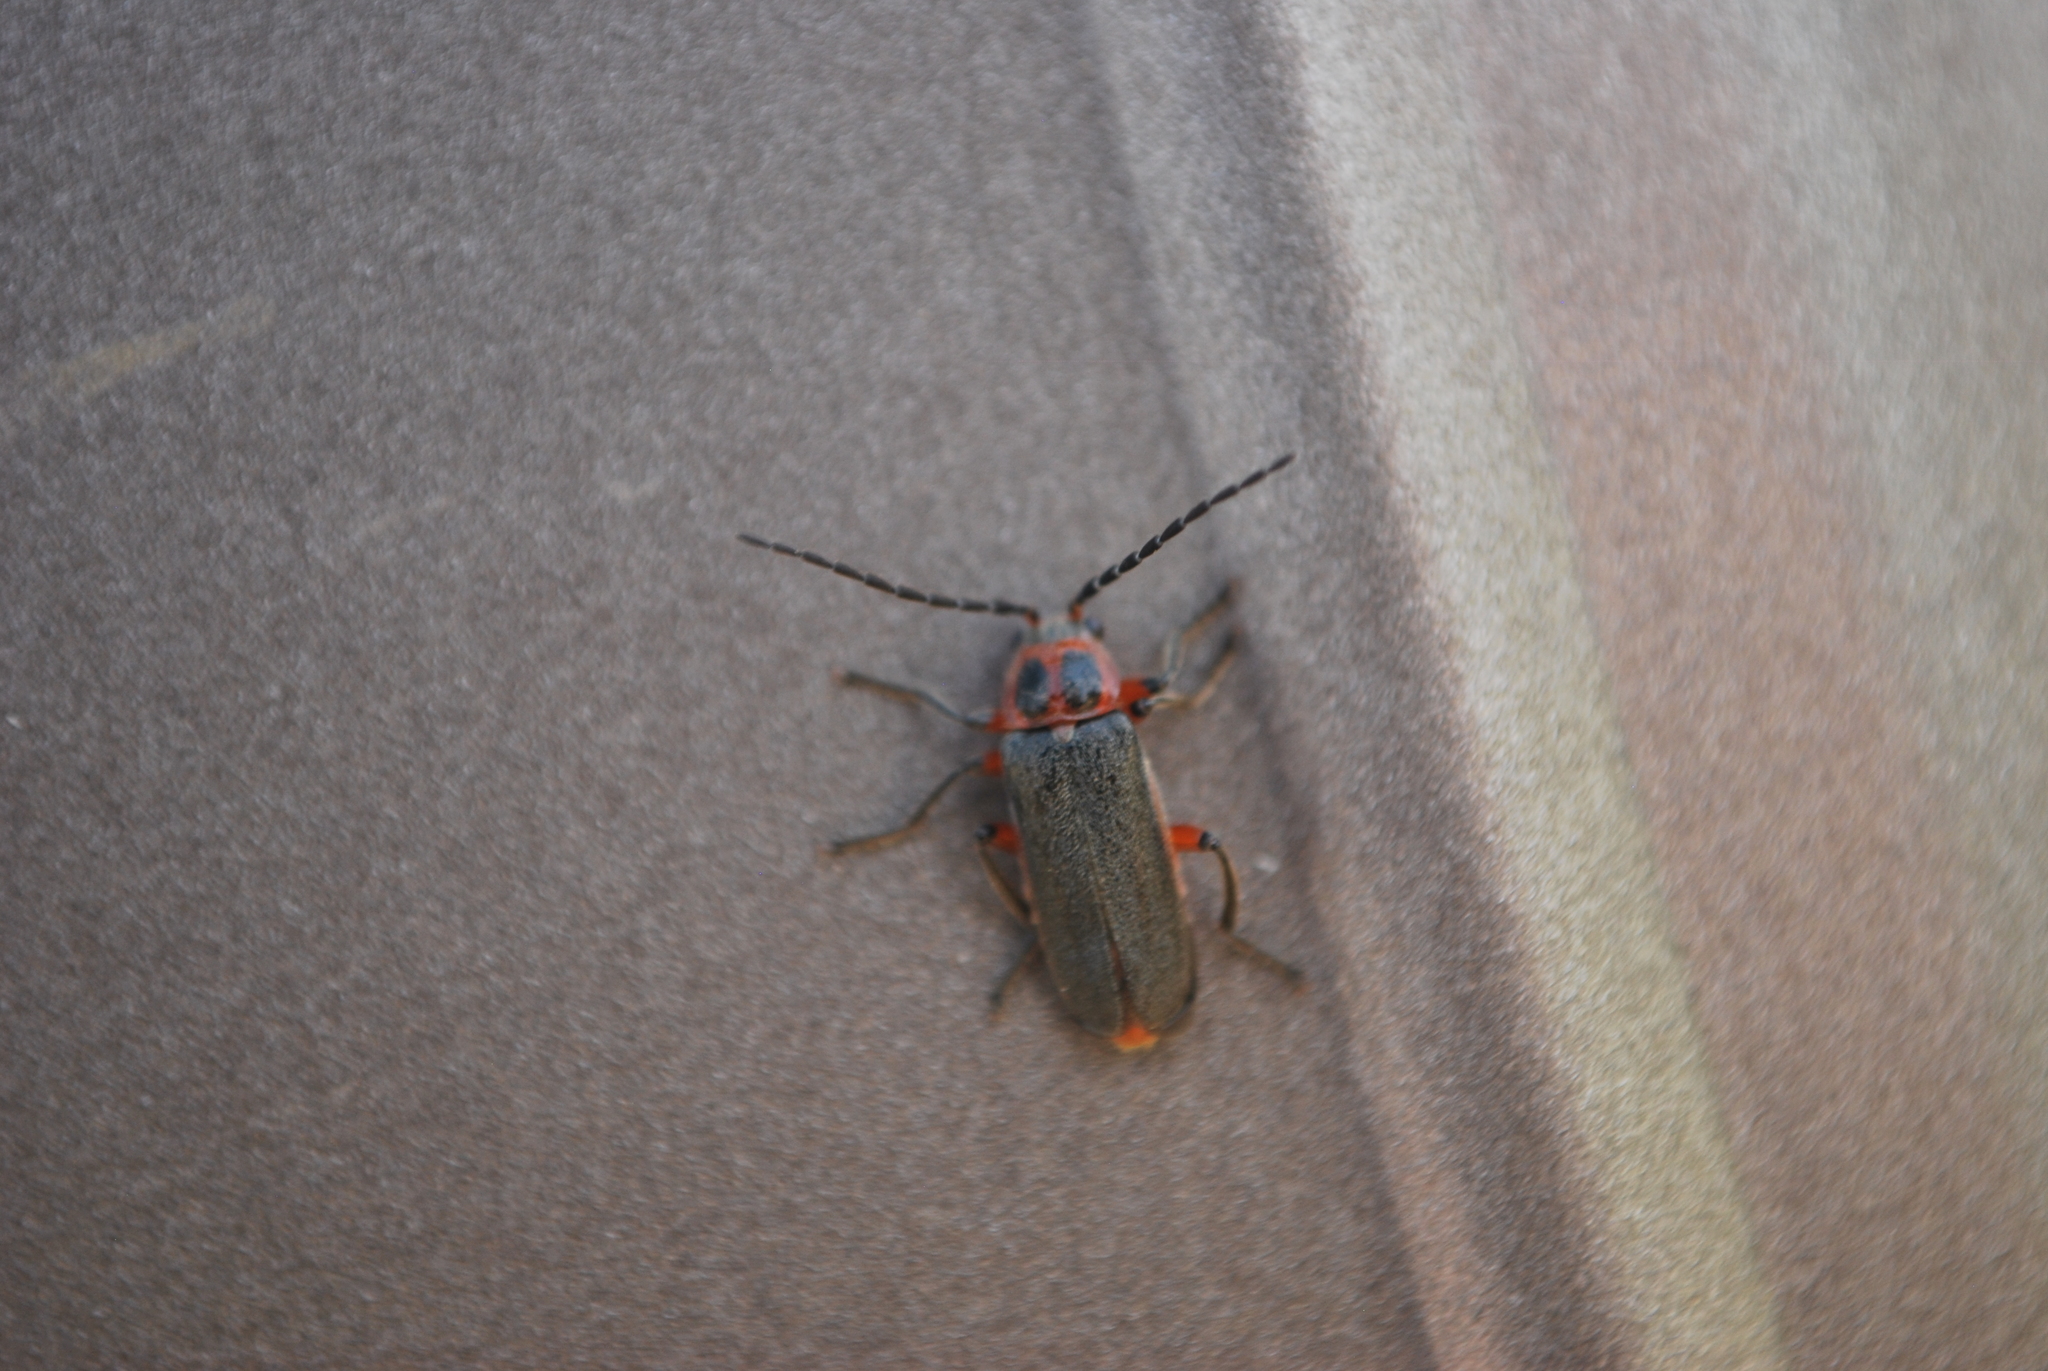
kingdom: Animalia
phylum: Arthropoda
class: Insecta
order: Coleoptera
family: Cantharidae
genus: Atalantycha
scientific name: Atalantycha bilineata
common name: Two-lined leatherwing
